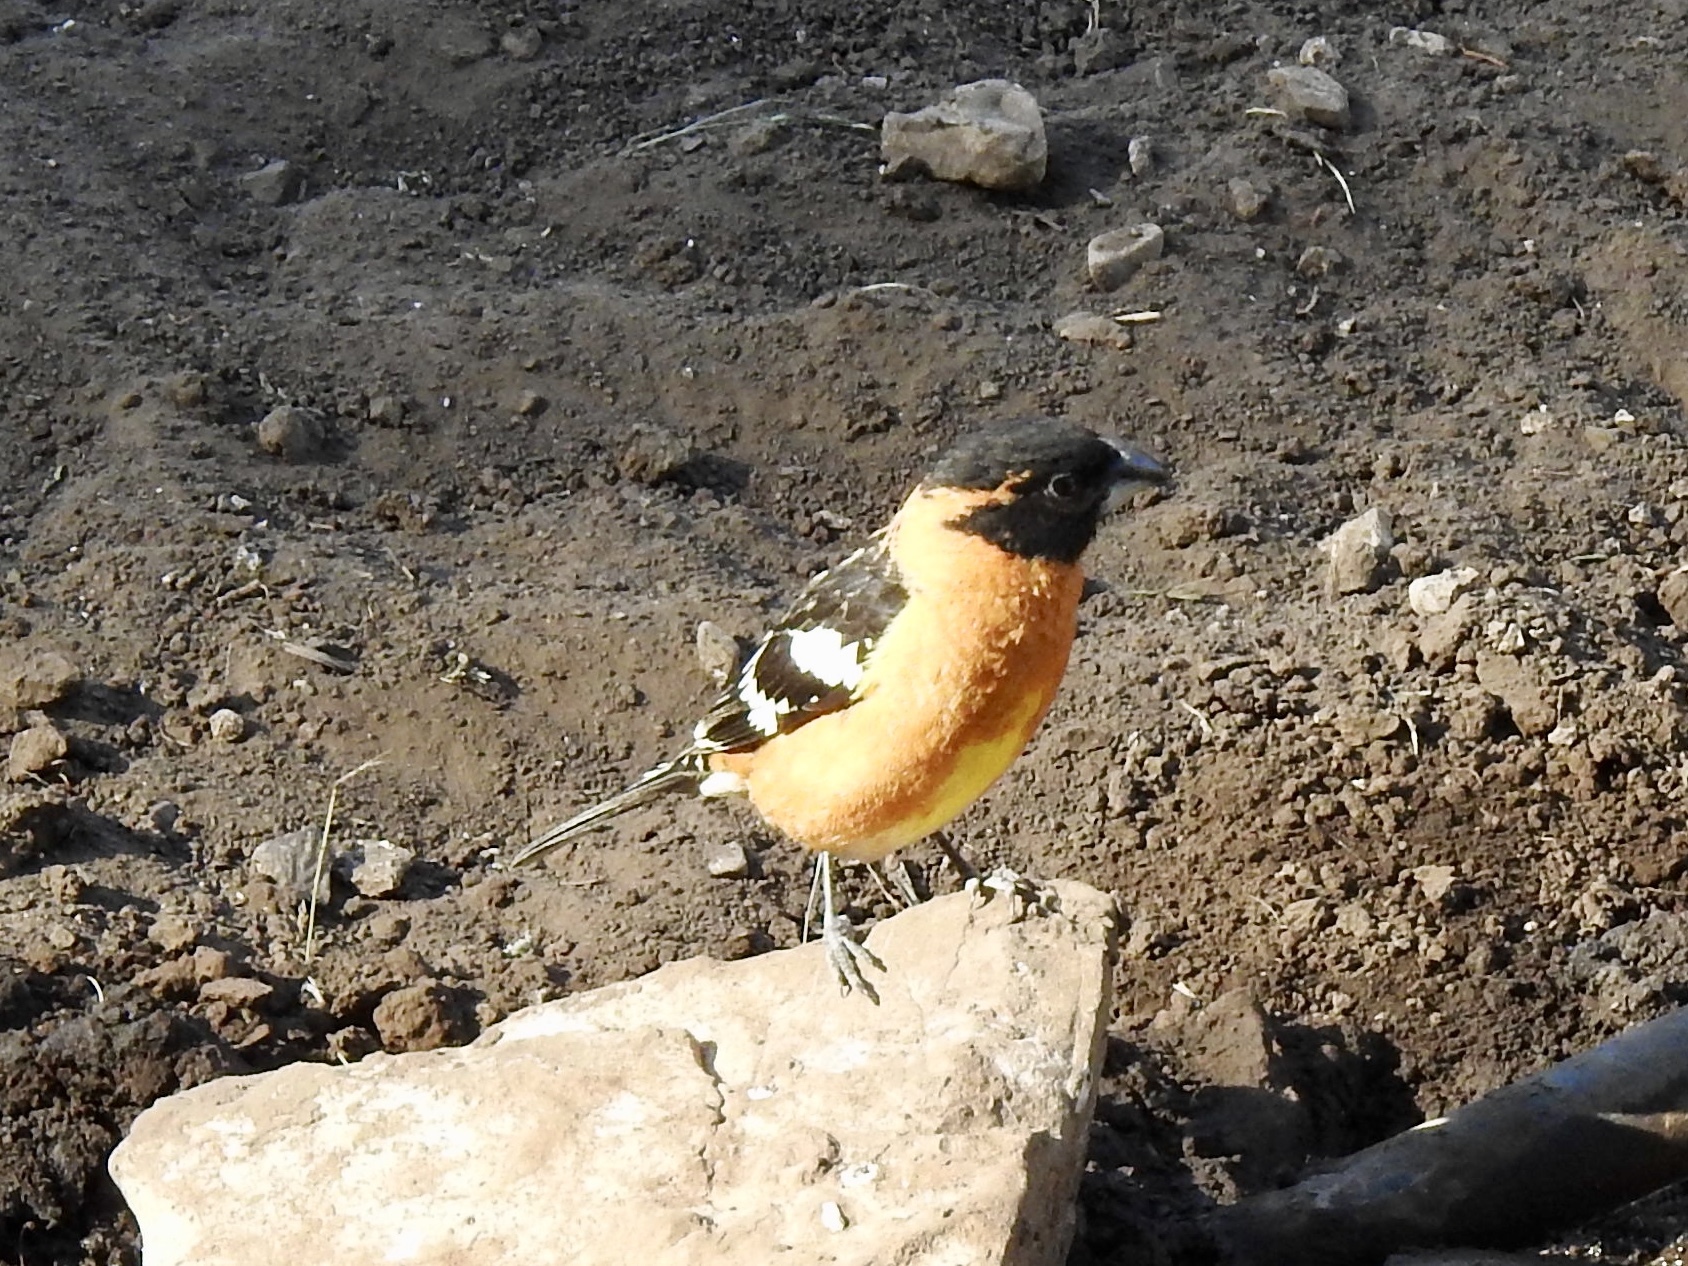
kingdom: Animalia
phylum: Chordata
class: Aves
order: Passeriformes
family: Cardinalidae
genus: Pheucticus
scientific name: Pheucticus melanocephalus
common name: Black-headed grosbeak
